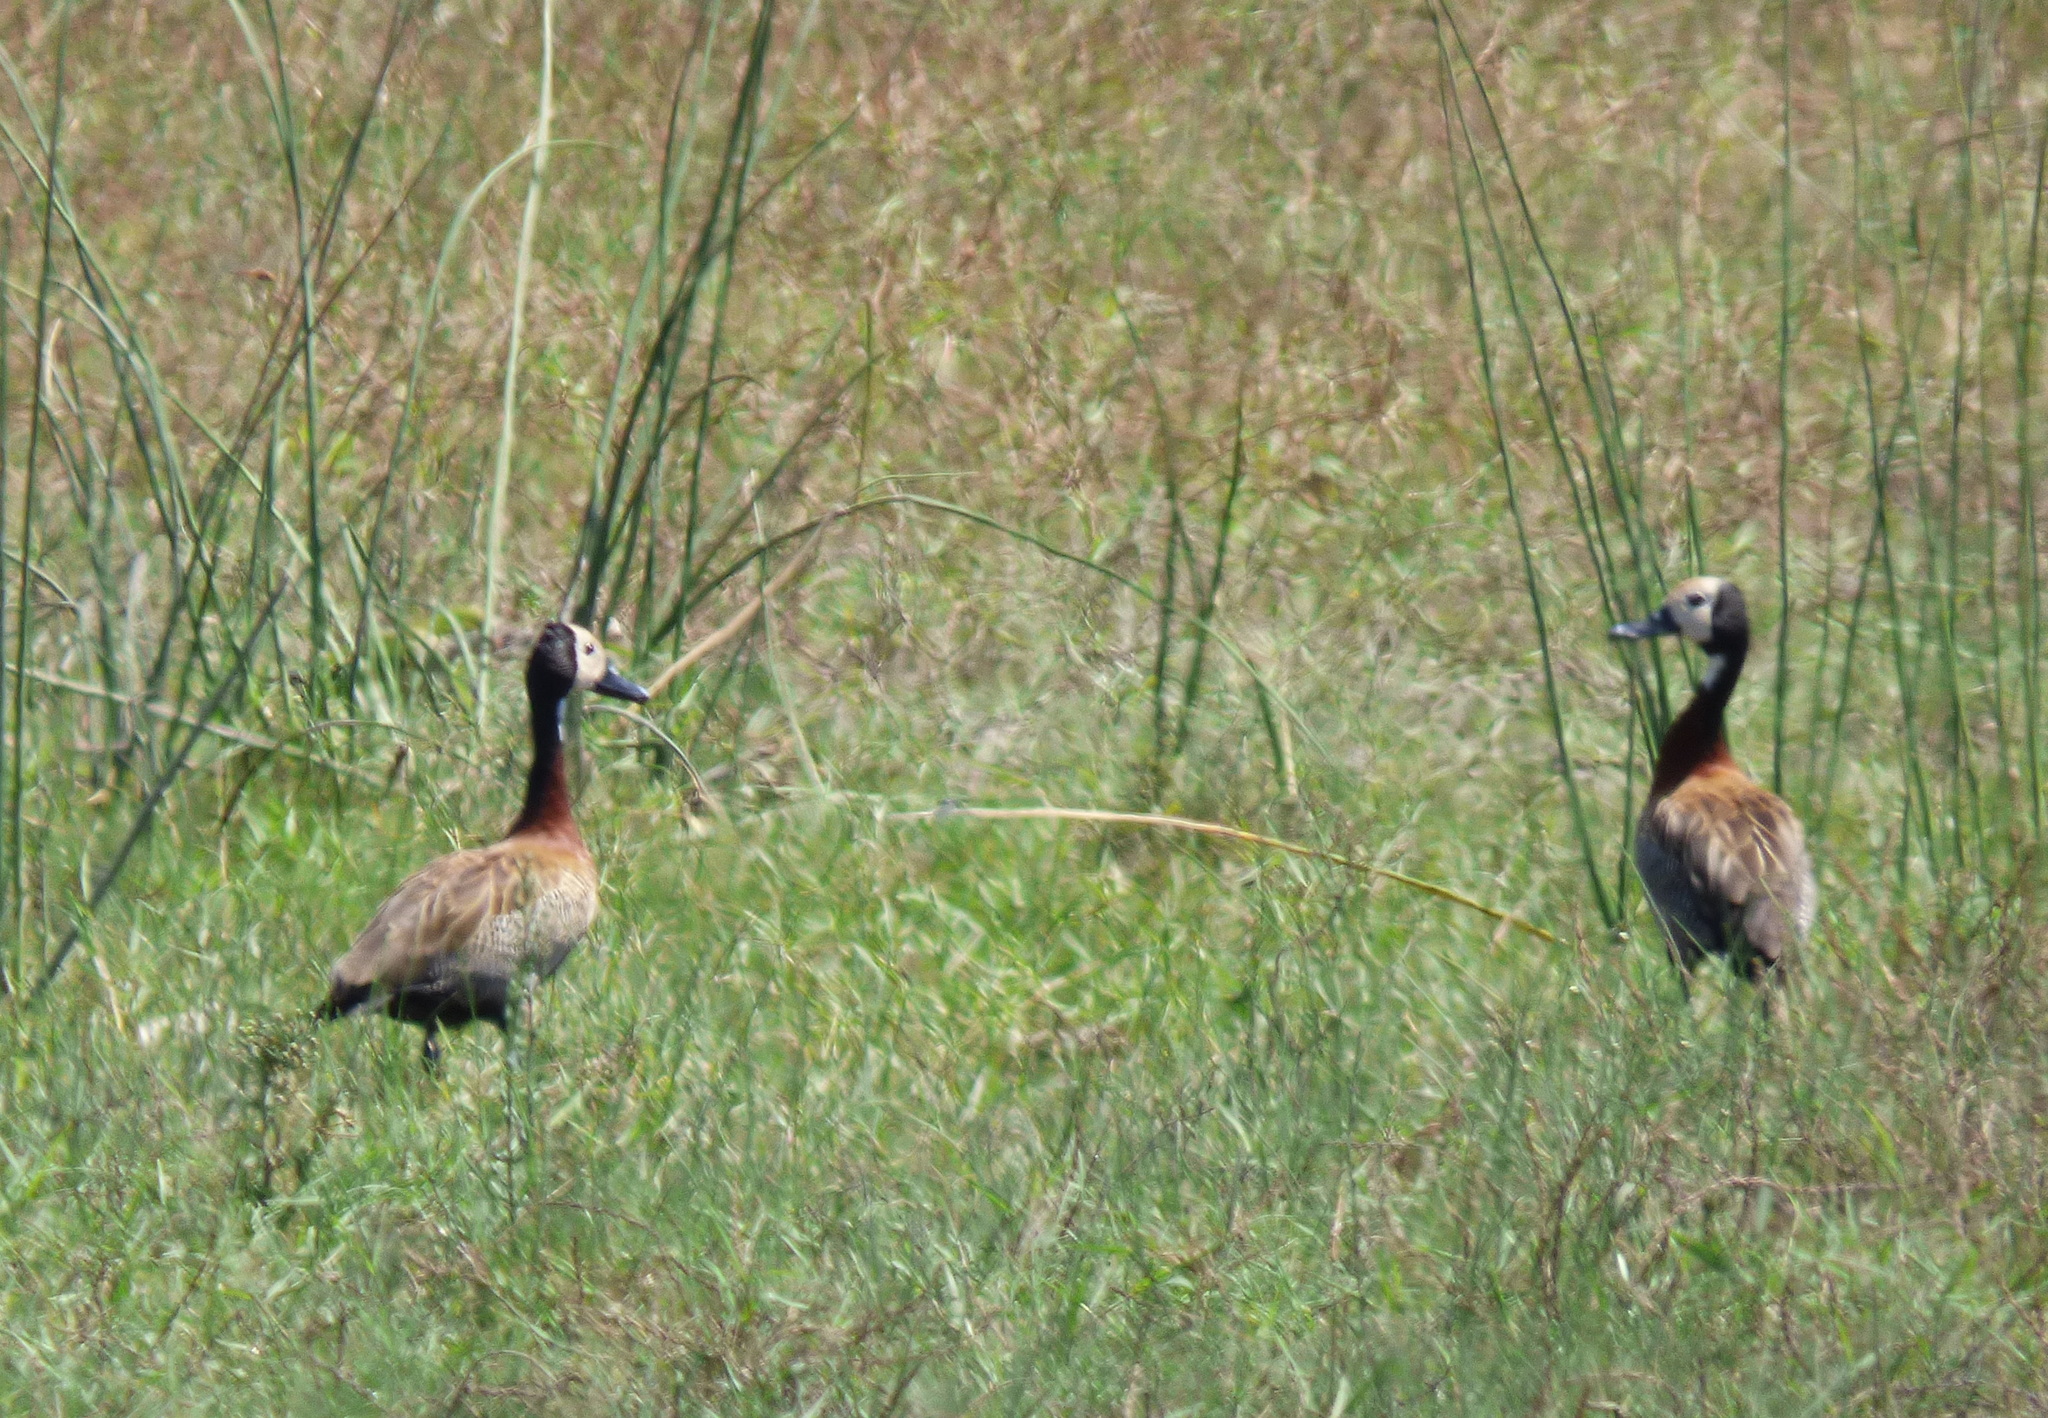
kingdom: Animalia
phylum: Chordata
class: Aves
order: Anseriformes
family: Anatidae
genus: Dendrocygna
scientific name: Dendrocygna viduata
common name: White-faced whistling duck
